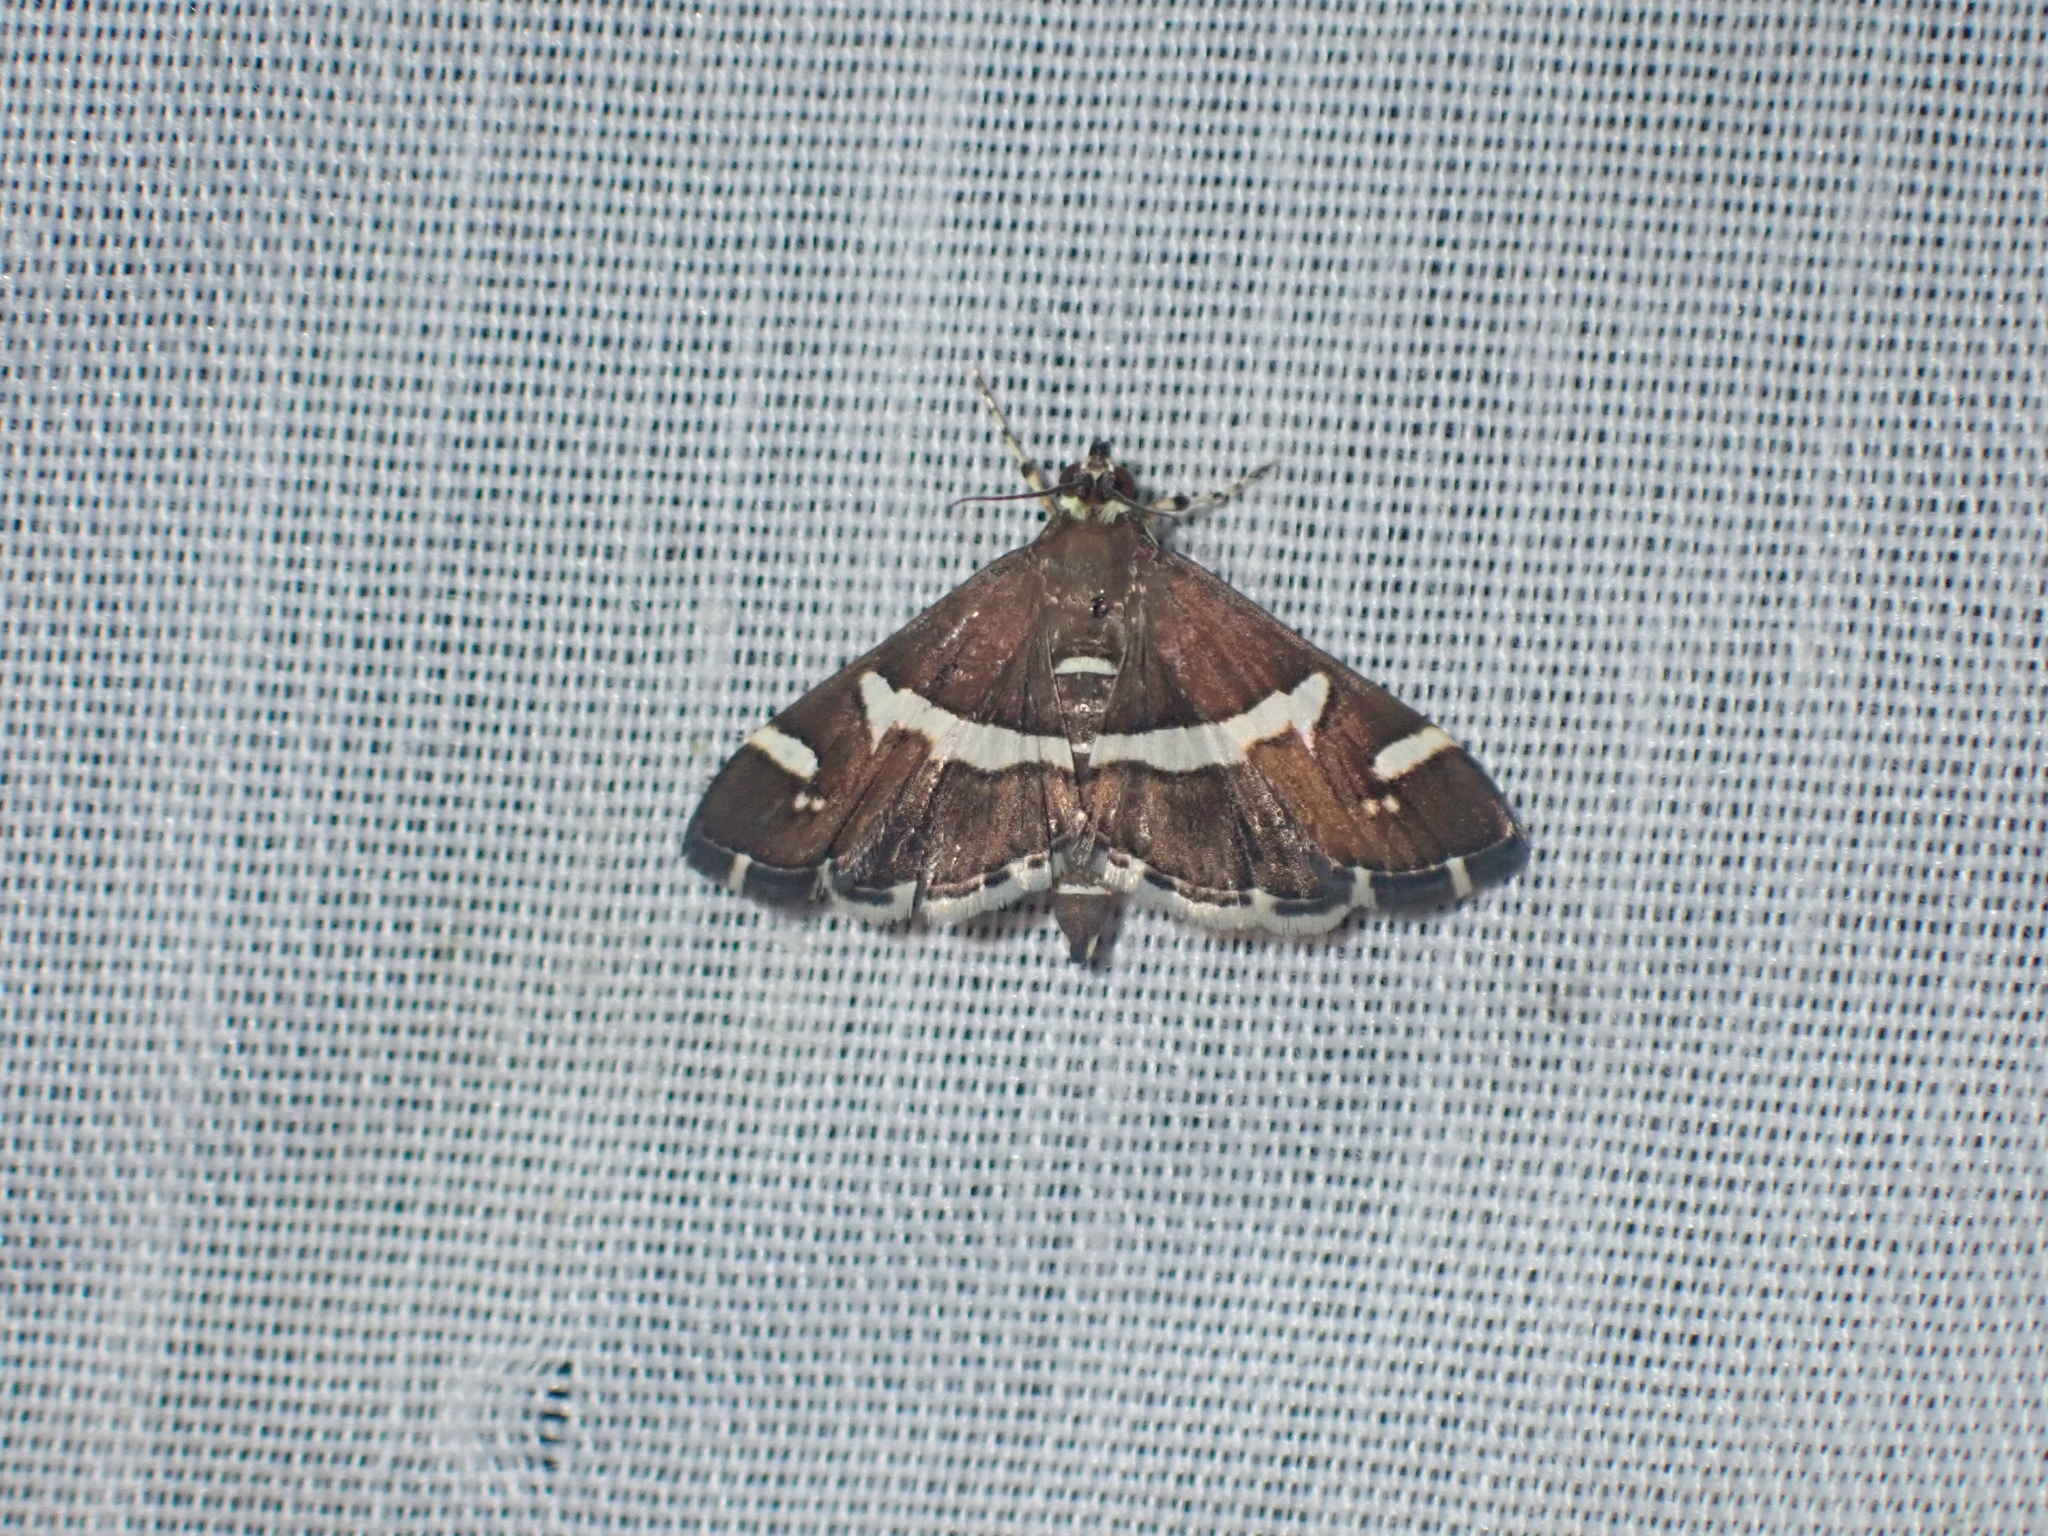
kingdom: Animalia
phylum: Arthropoda
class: Insecta
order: Lepidoptera
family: Crambidae
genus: Spoladea
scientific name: Spoladea recurvalis
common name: Beet webworm moth
